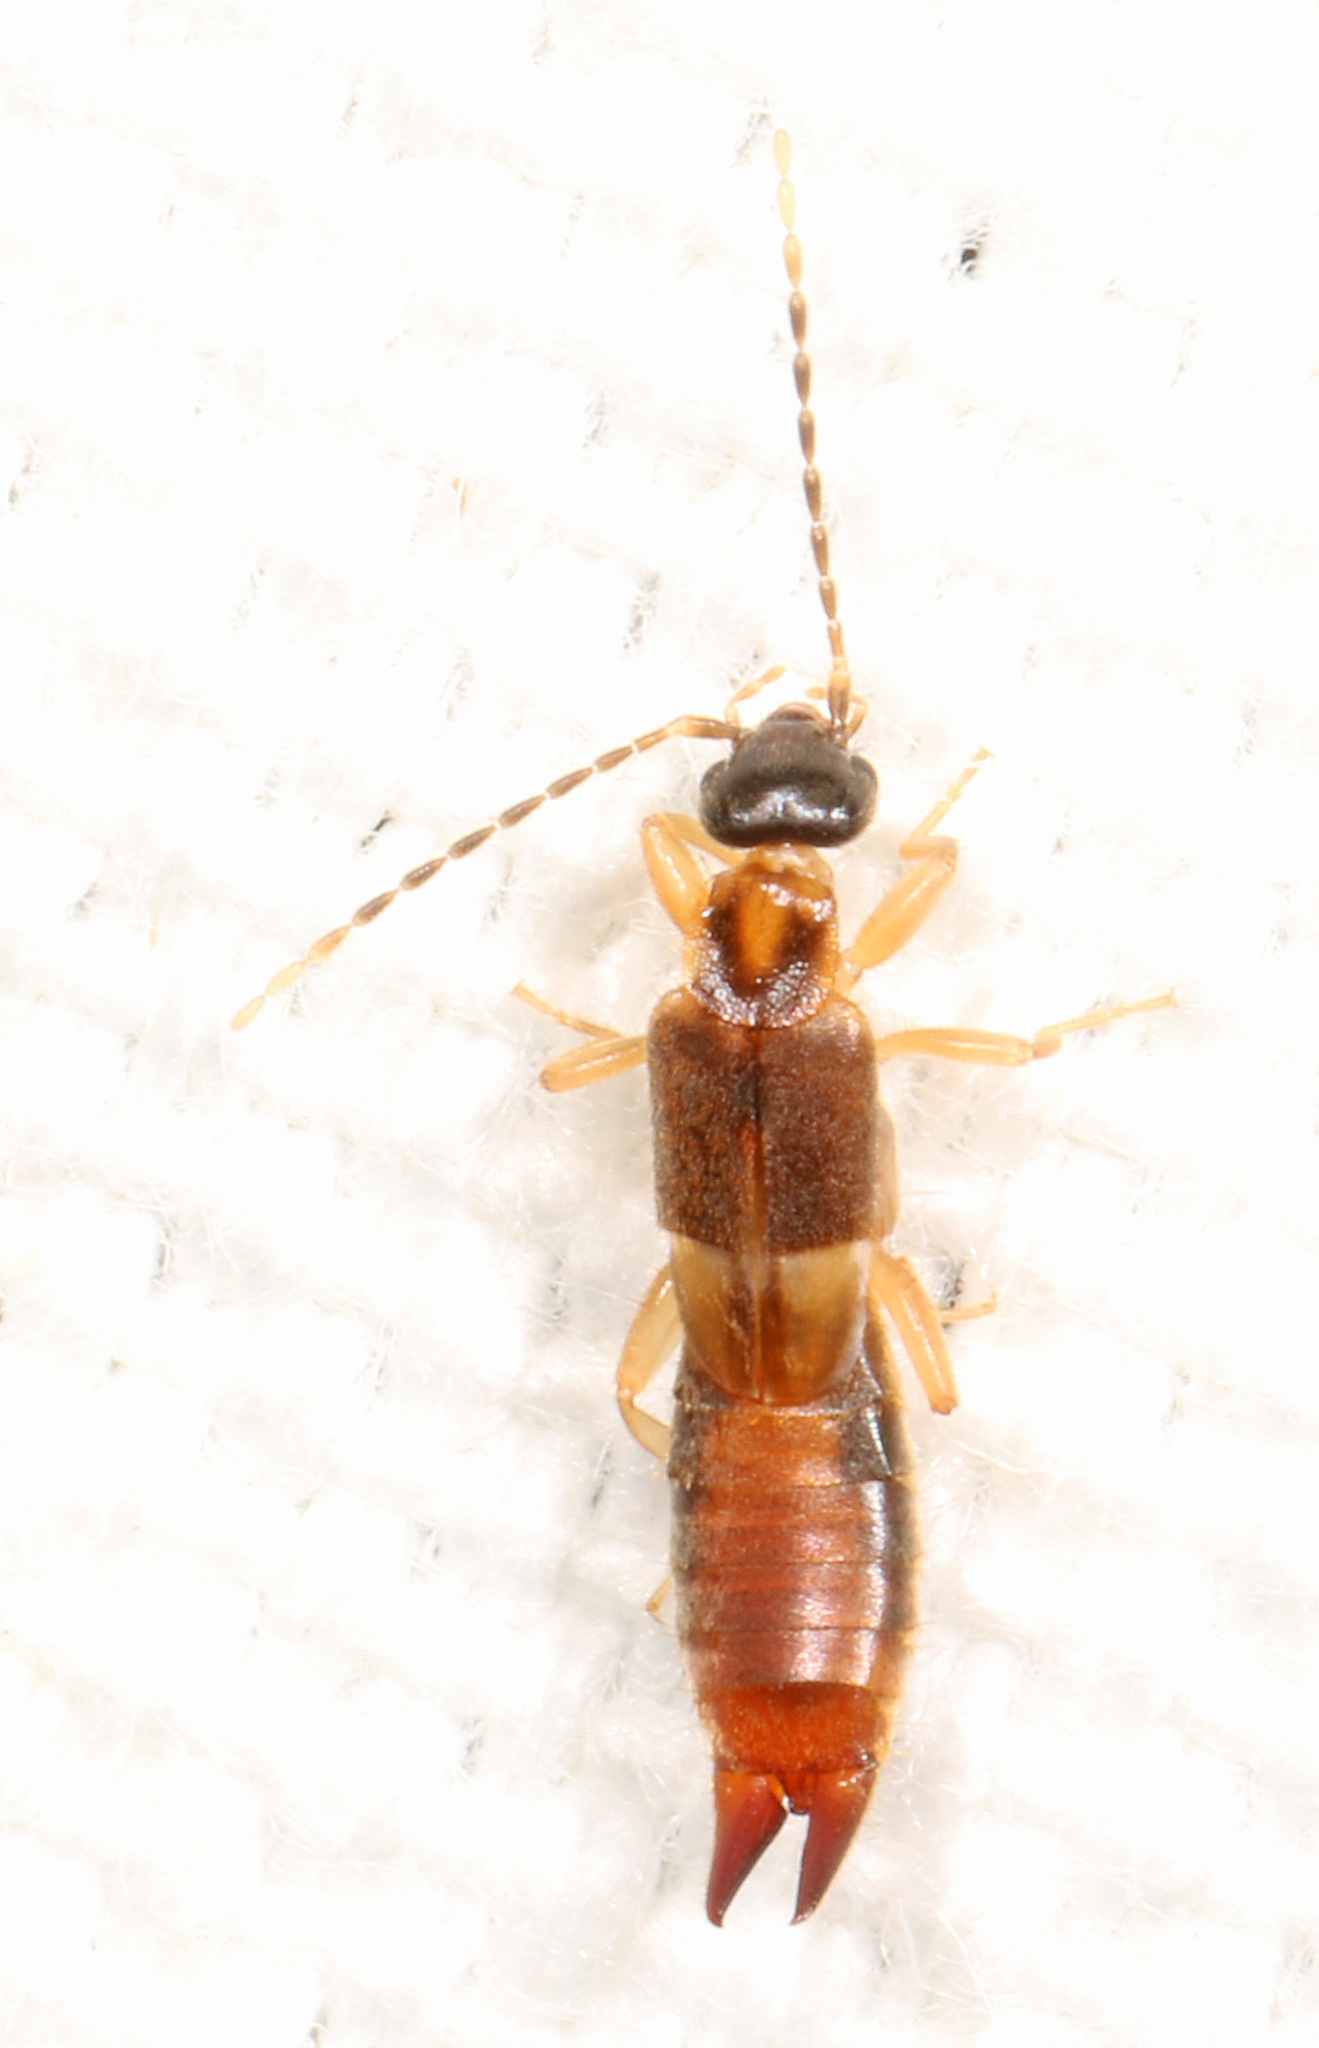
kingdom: Animalia
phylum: Arthropoda
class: Insecta
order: Dermaptera
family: Spongiphoridae
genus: Labia
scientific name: Labia minor
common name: Lesser earwig
